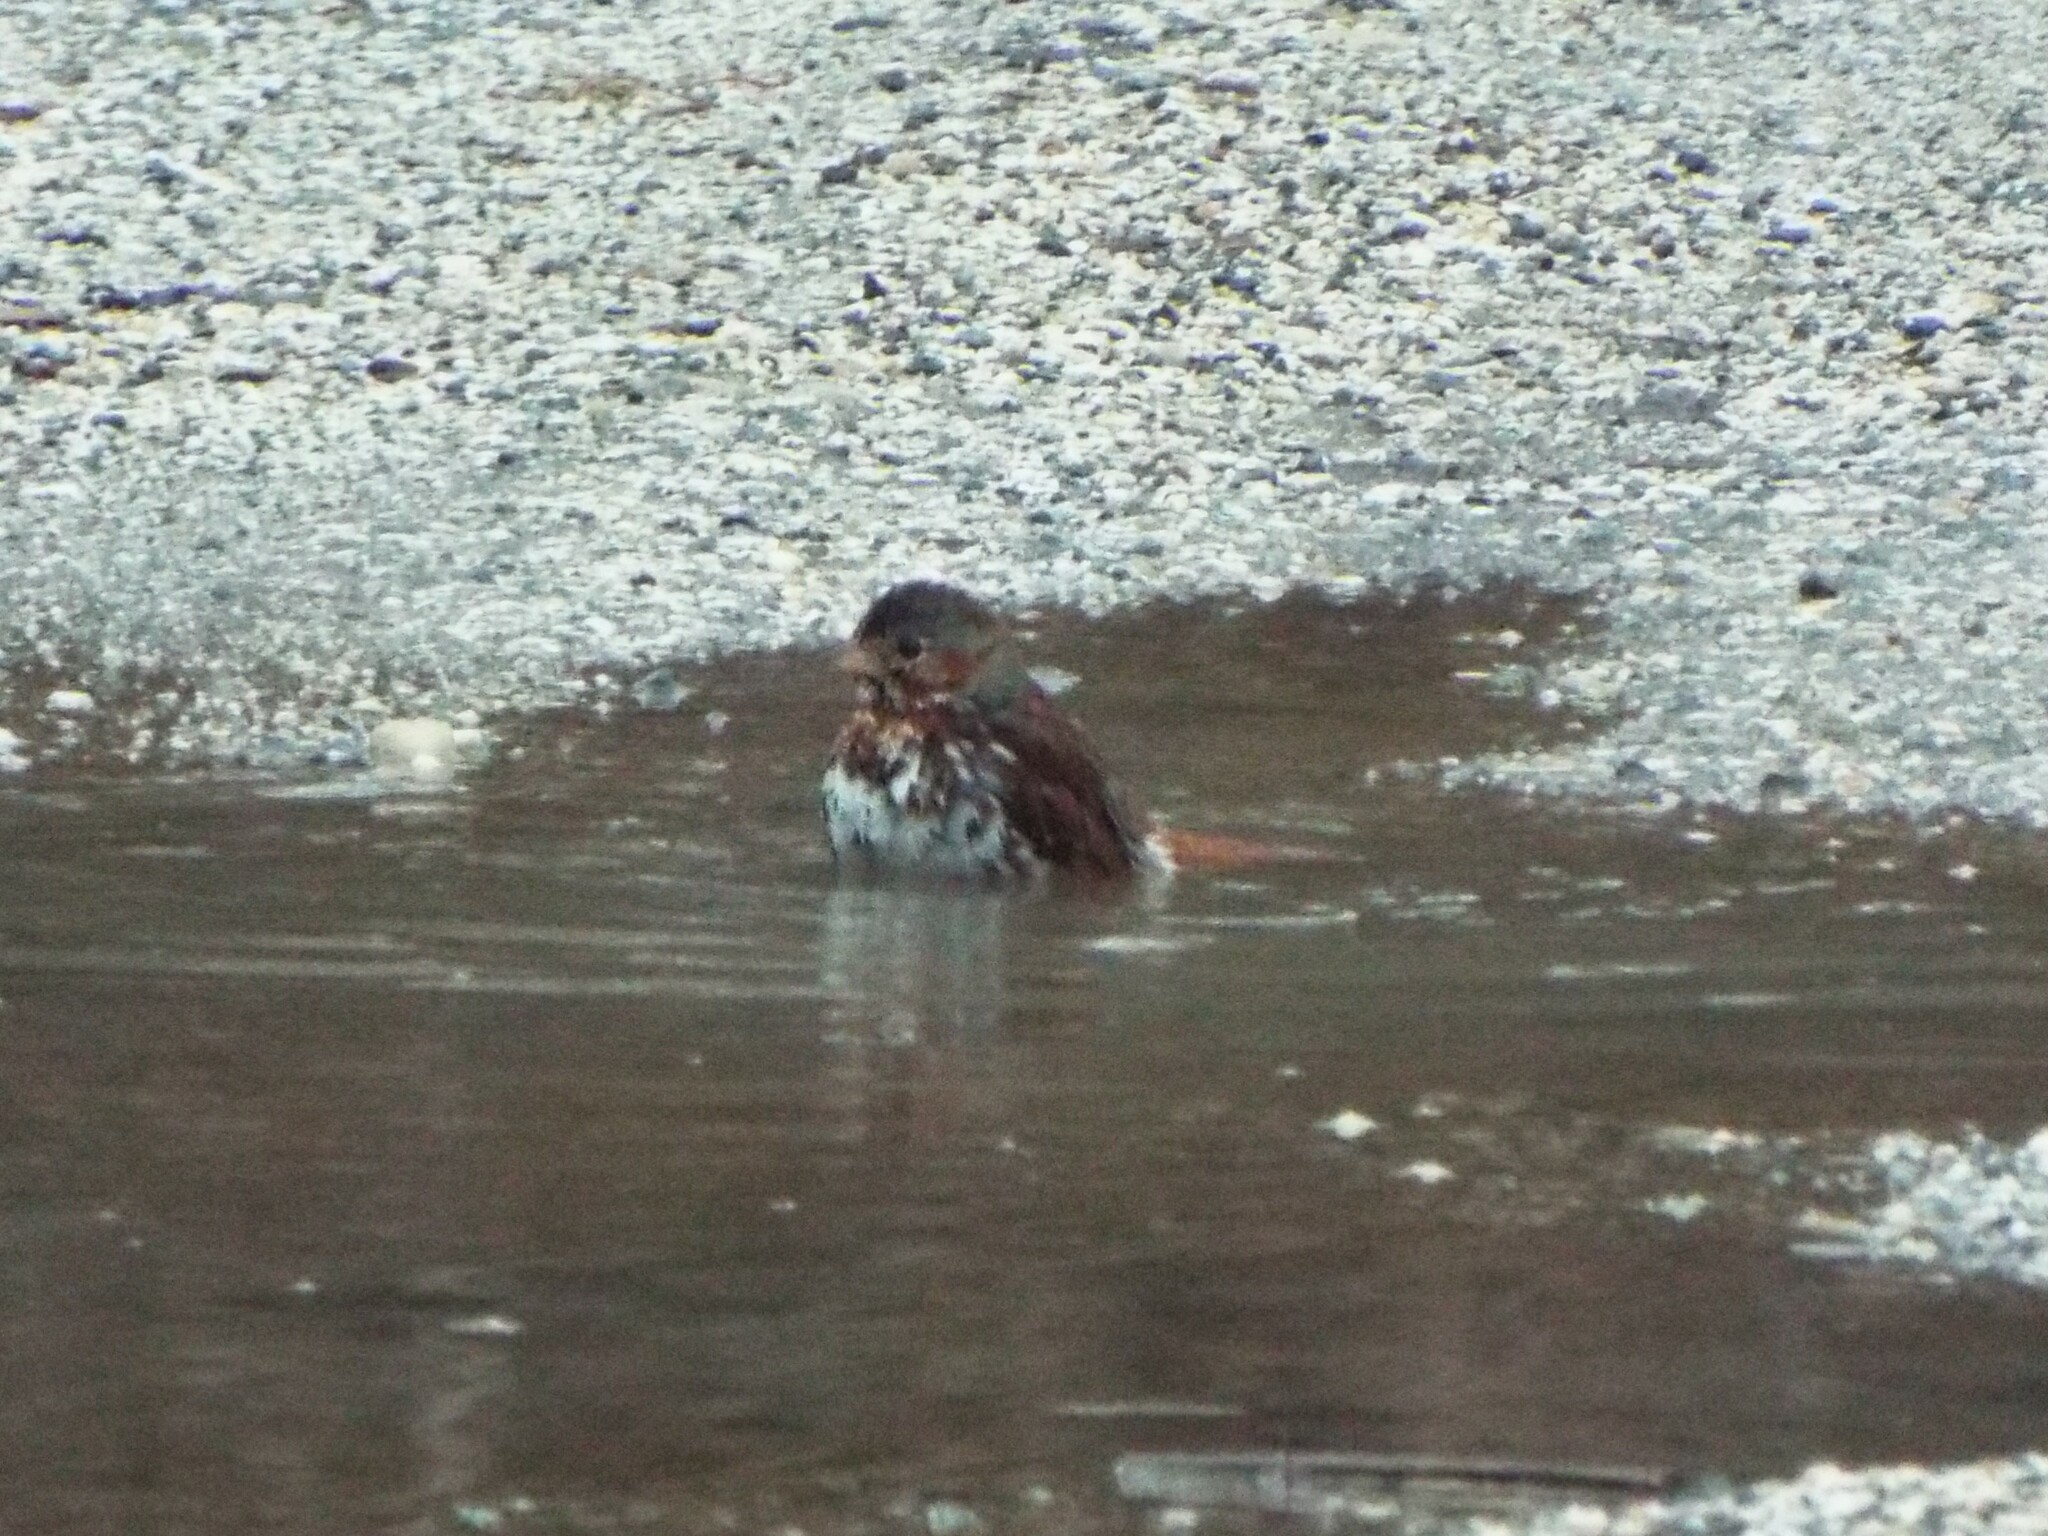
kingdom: Animalia
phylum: Chordata
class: Aves
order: Passeriformes
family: Passerellidae
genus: Passerella
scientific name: Passerella iliaca
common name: Fox sparrow
